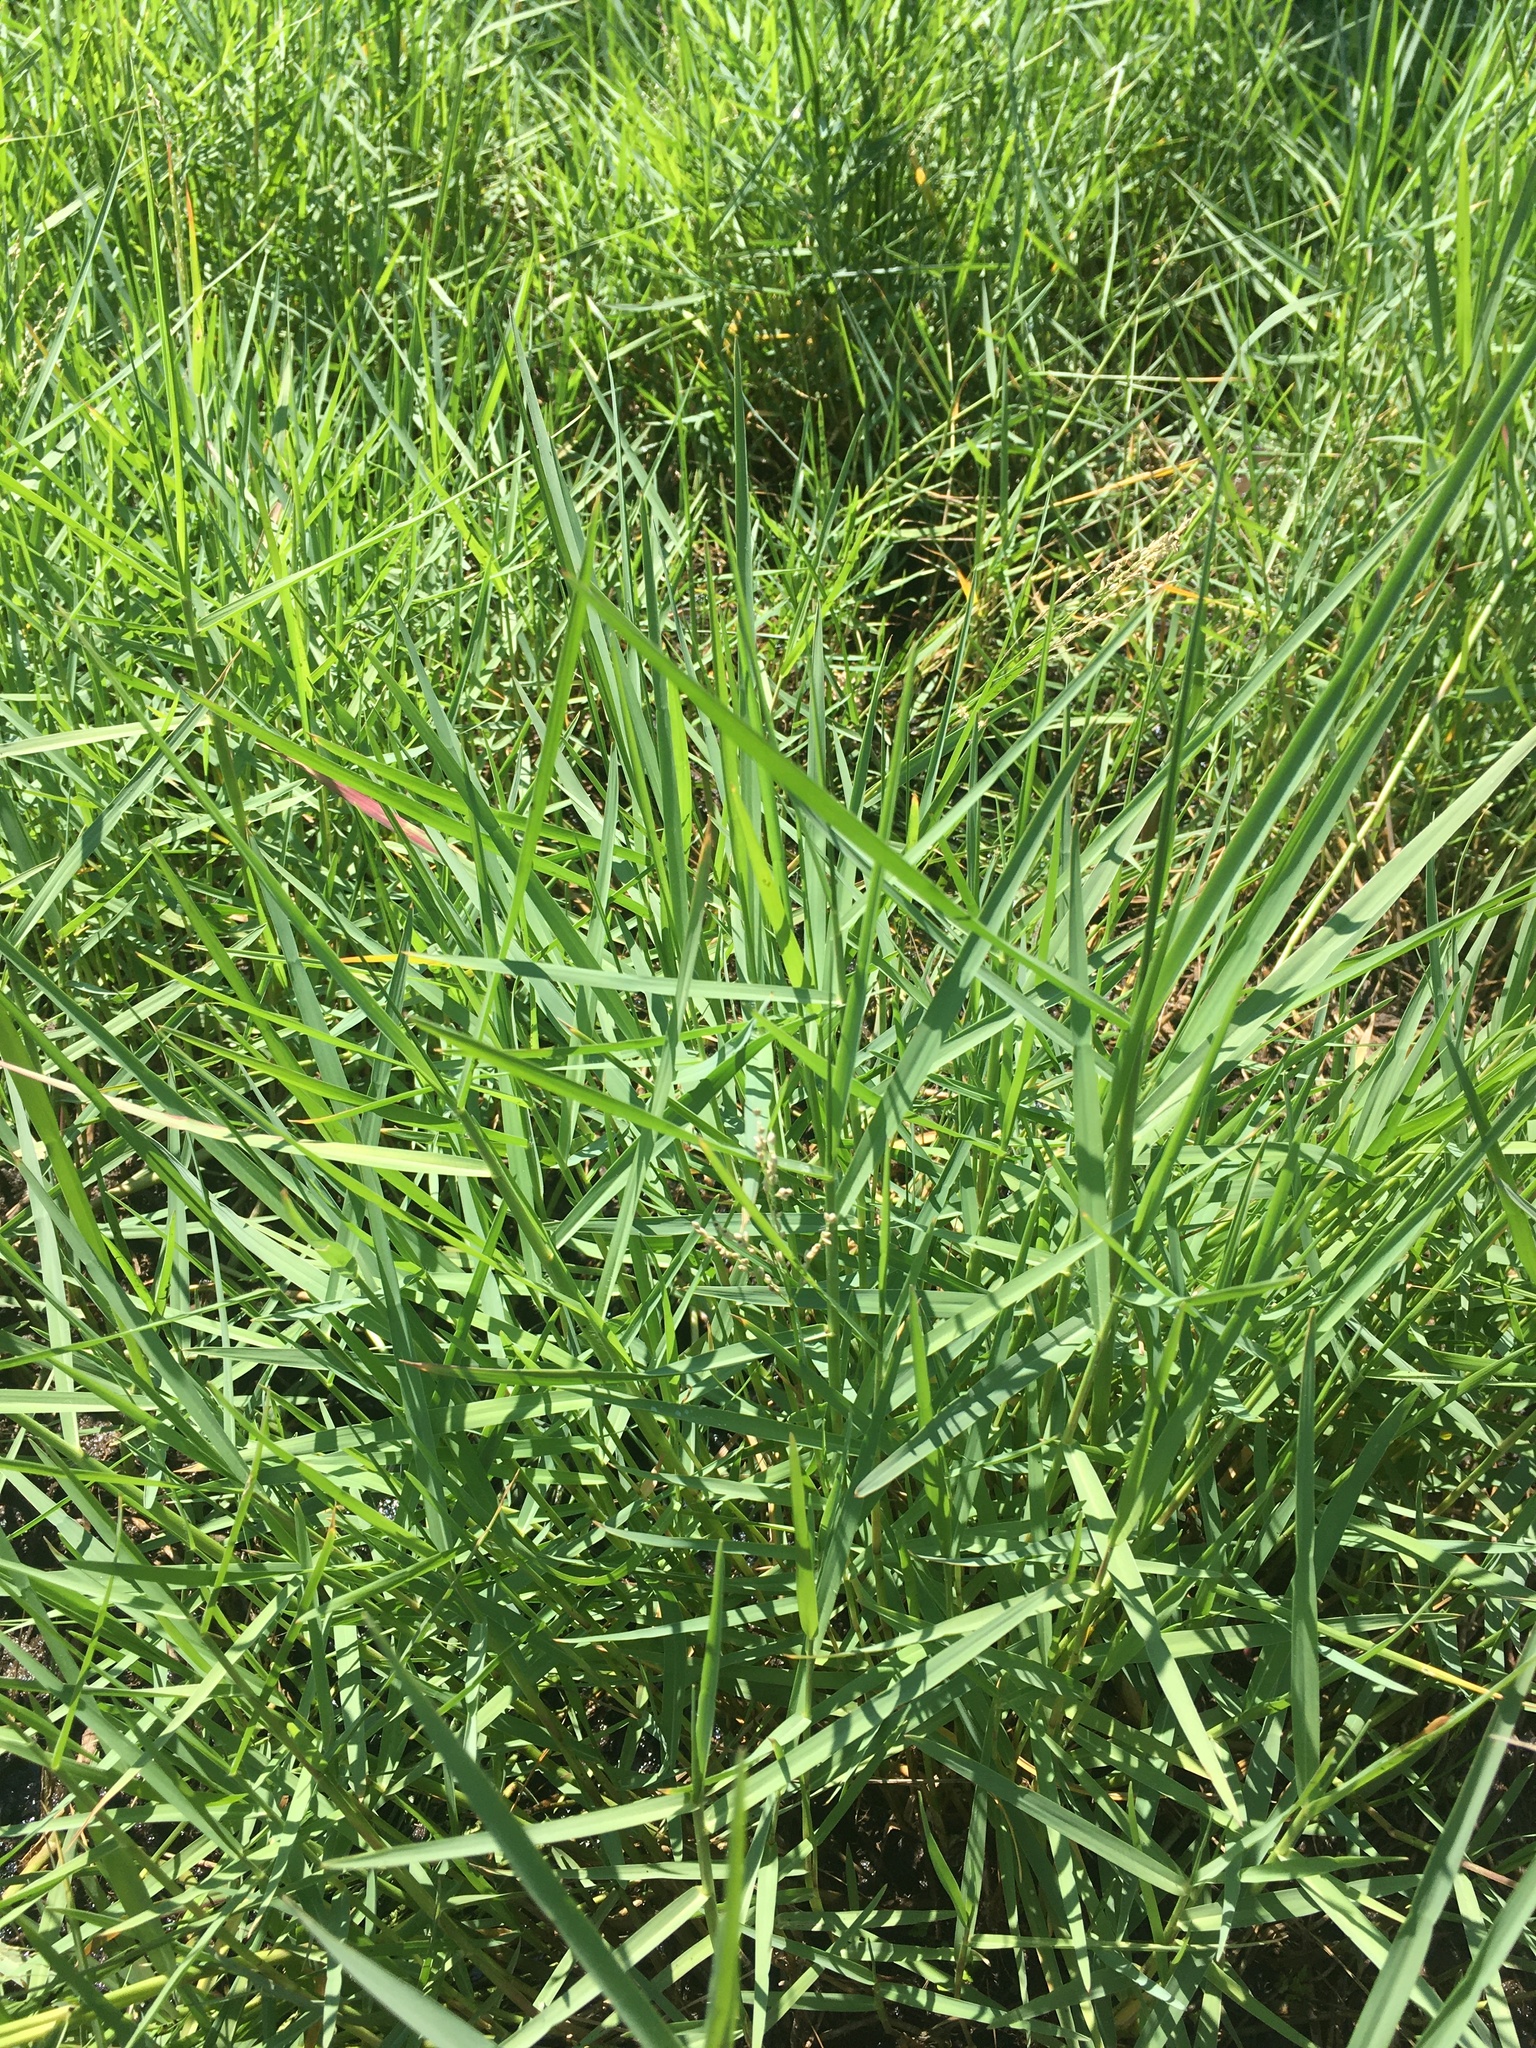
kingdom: Plantae
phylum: Tracheophyta
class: Liliopsida
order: Poales
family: Poaceae
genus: Panicum
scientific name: Panicum repens
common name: Torpedo grass
